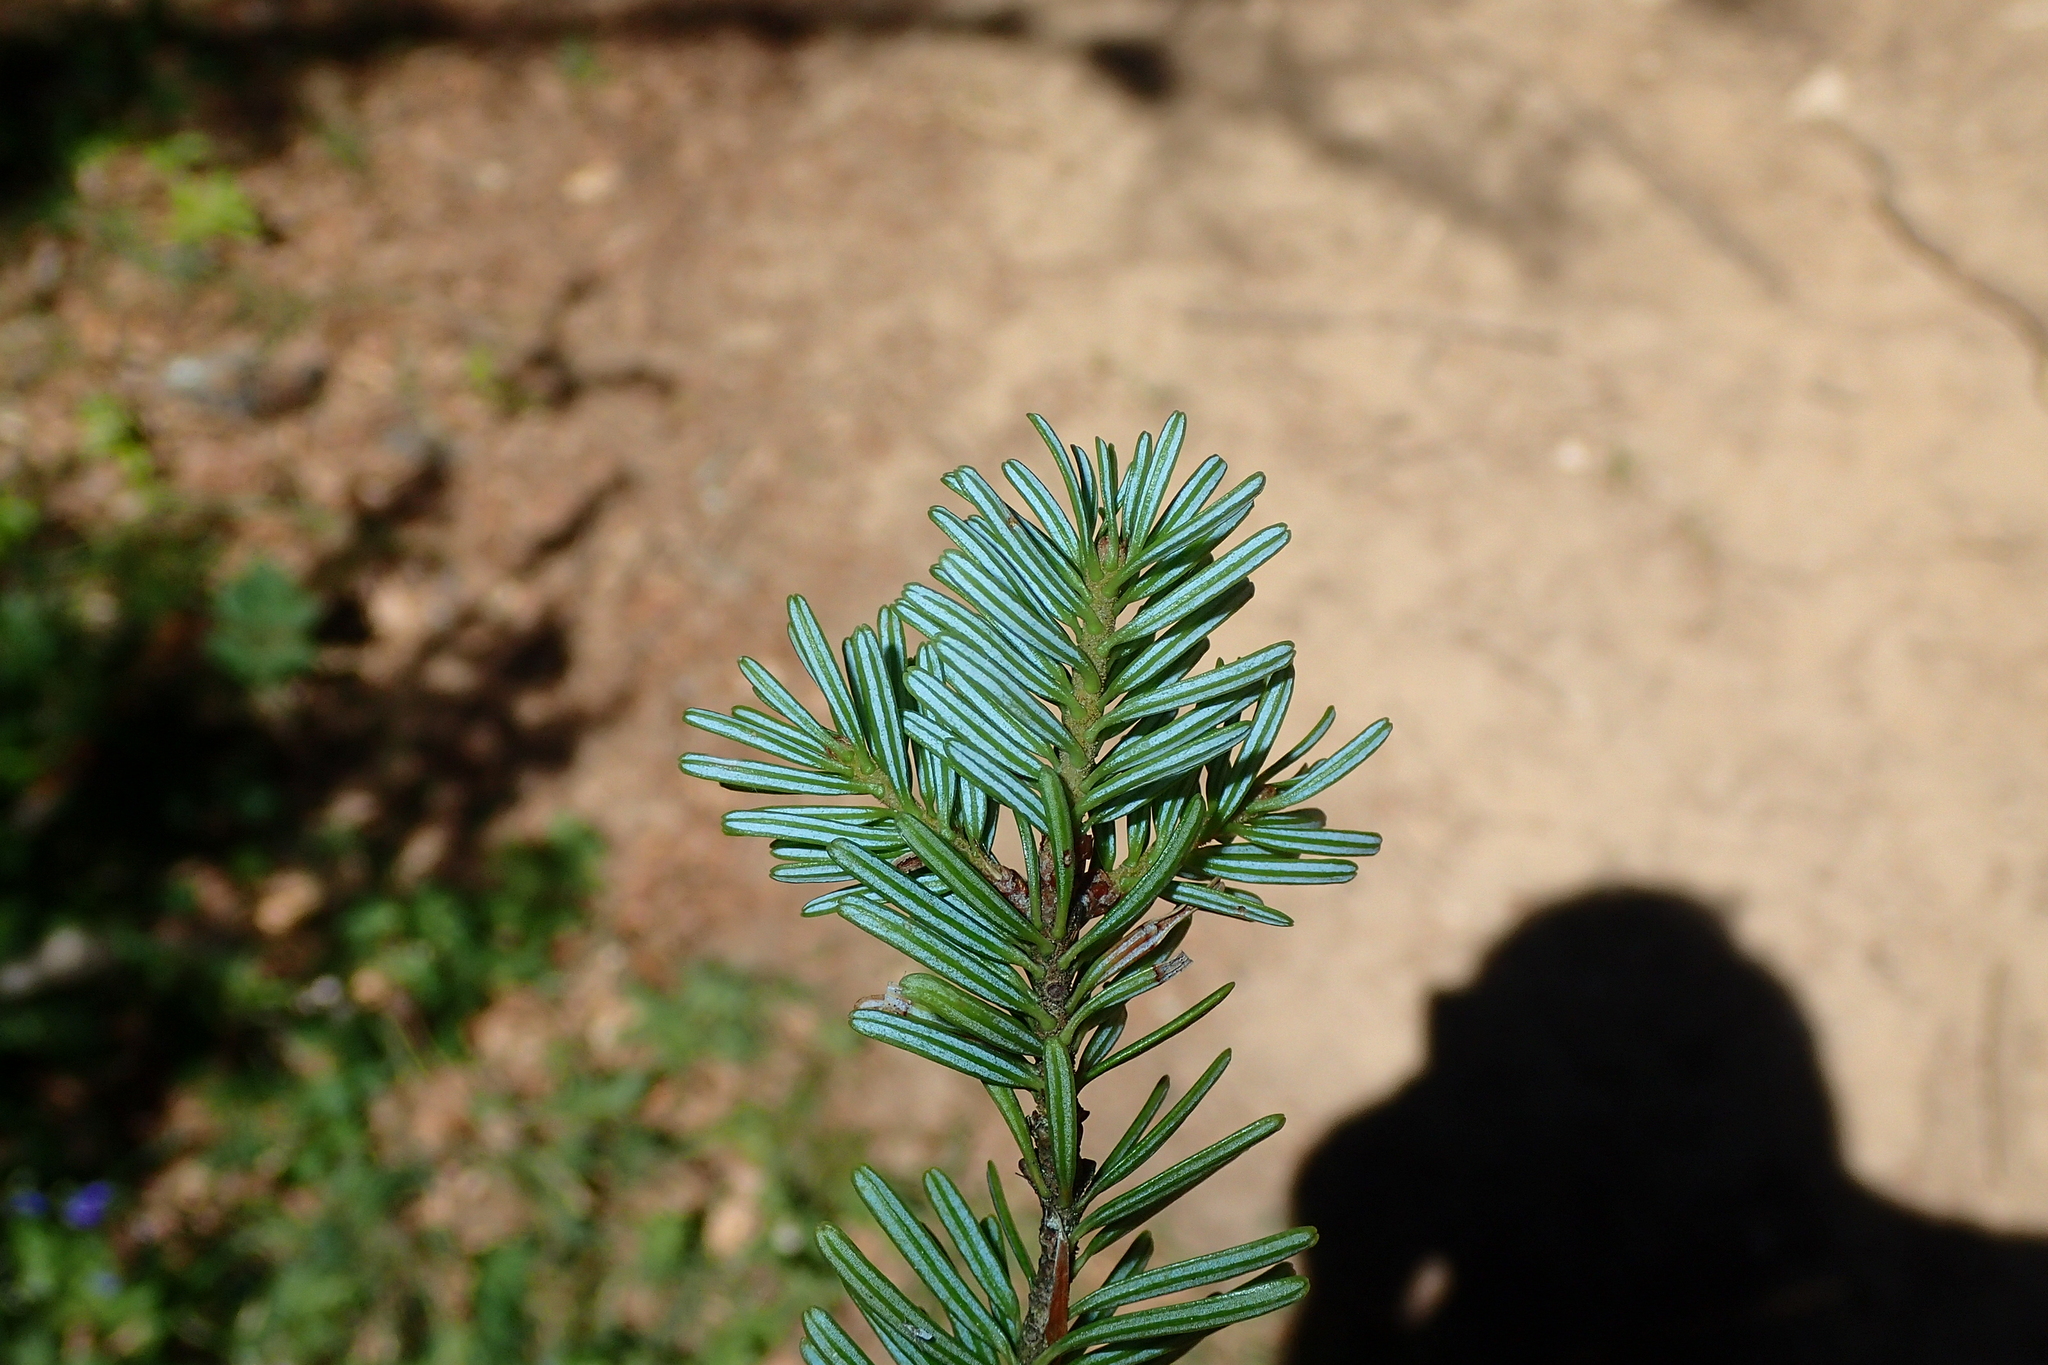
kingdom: Plantae
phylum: Tracheophyta
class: Pinopsida
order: Pinales
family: Pinaceae
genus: Abies
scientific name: Abies alba
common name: Silver fir
